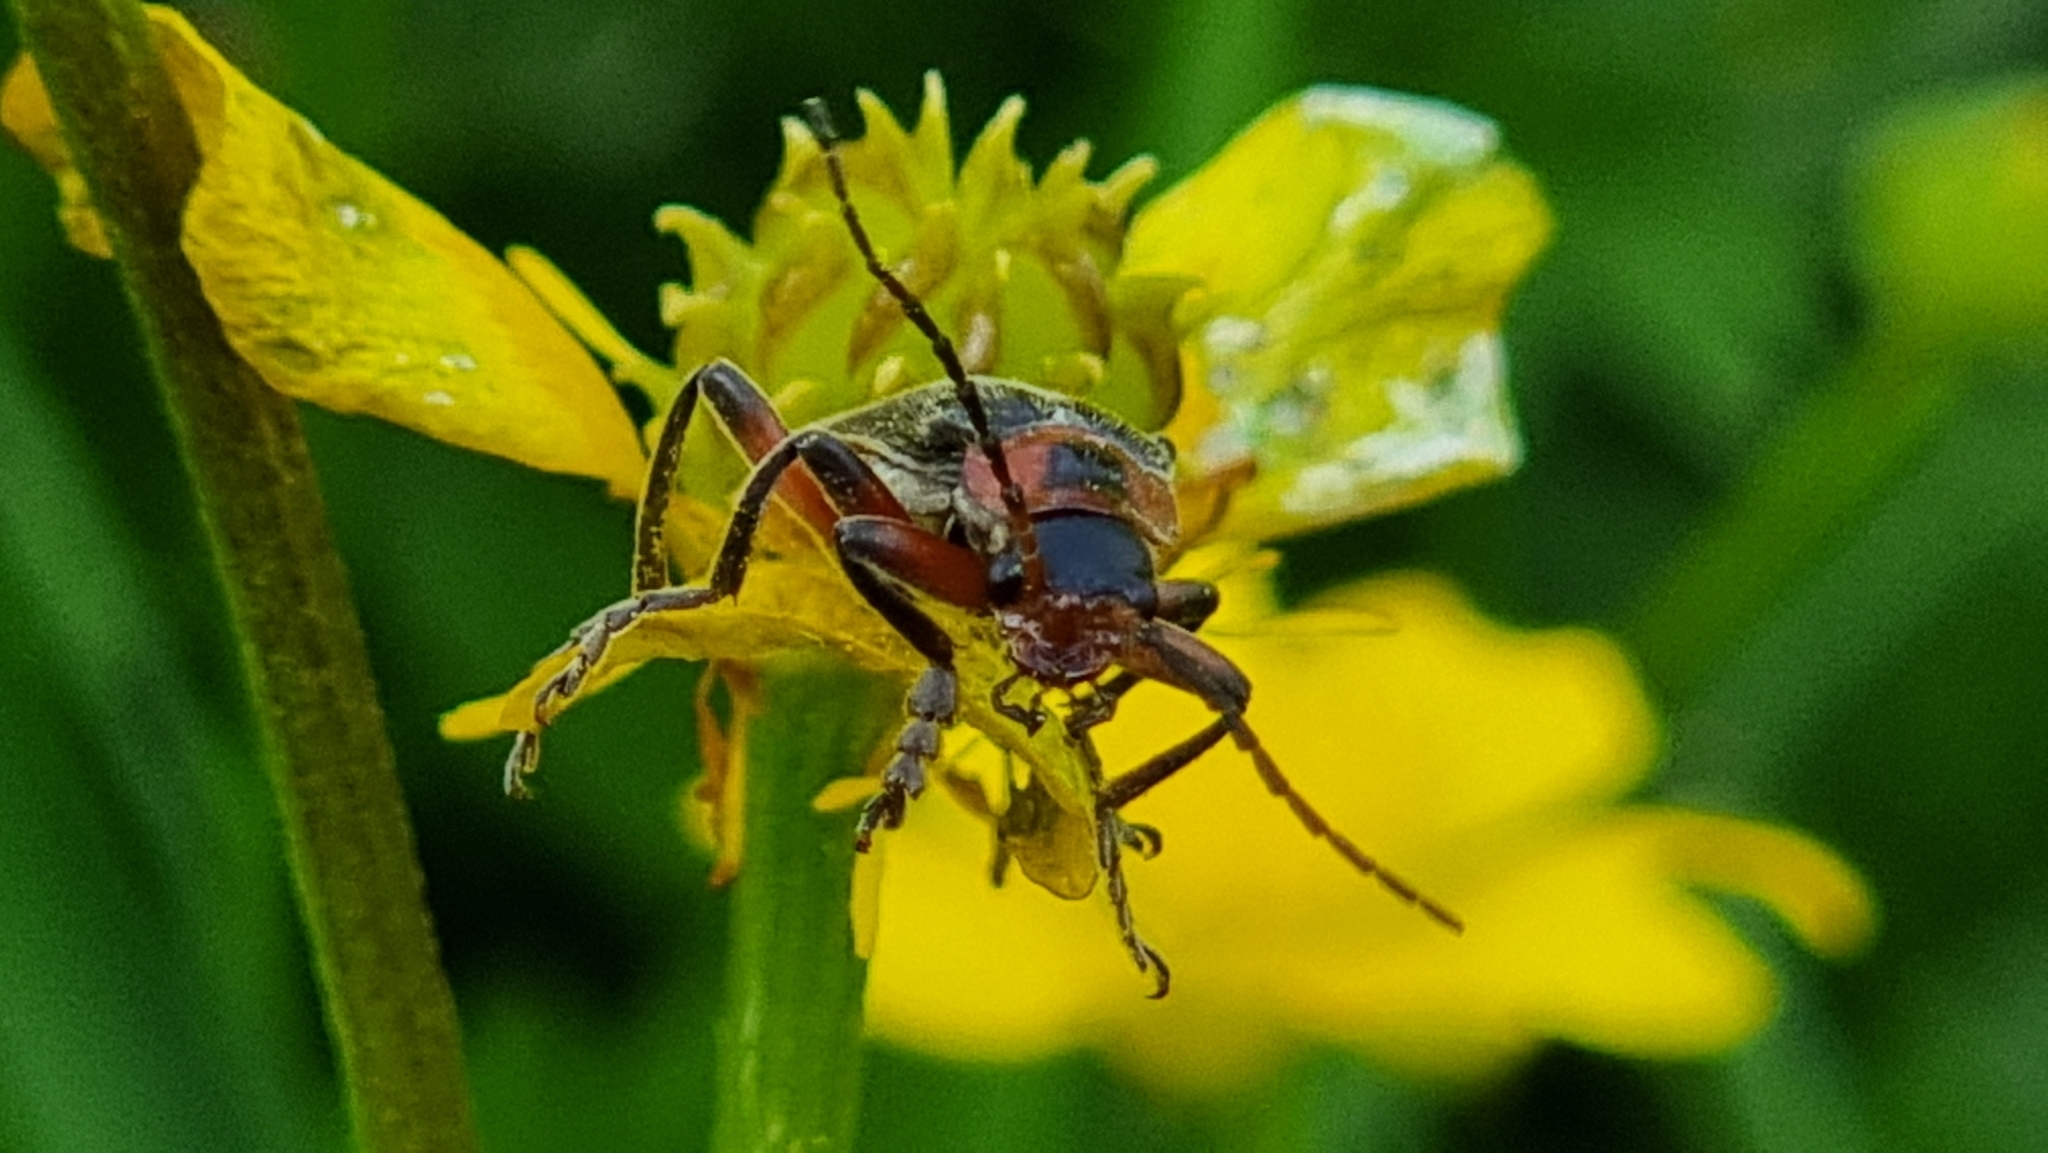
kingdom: Animalia
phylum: Arthropoda
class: Insecta
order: Coleoptera
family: Cantharidae
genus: Cantharis
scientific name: Cantharis rustica
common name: Soldier beetle
